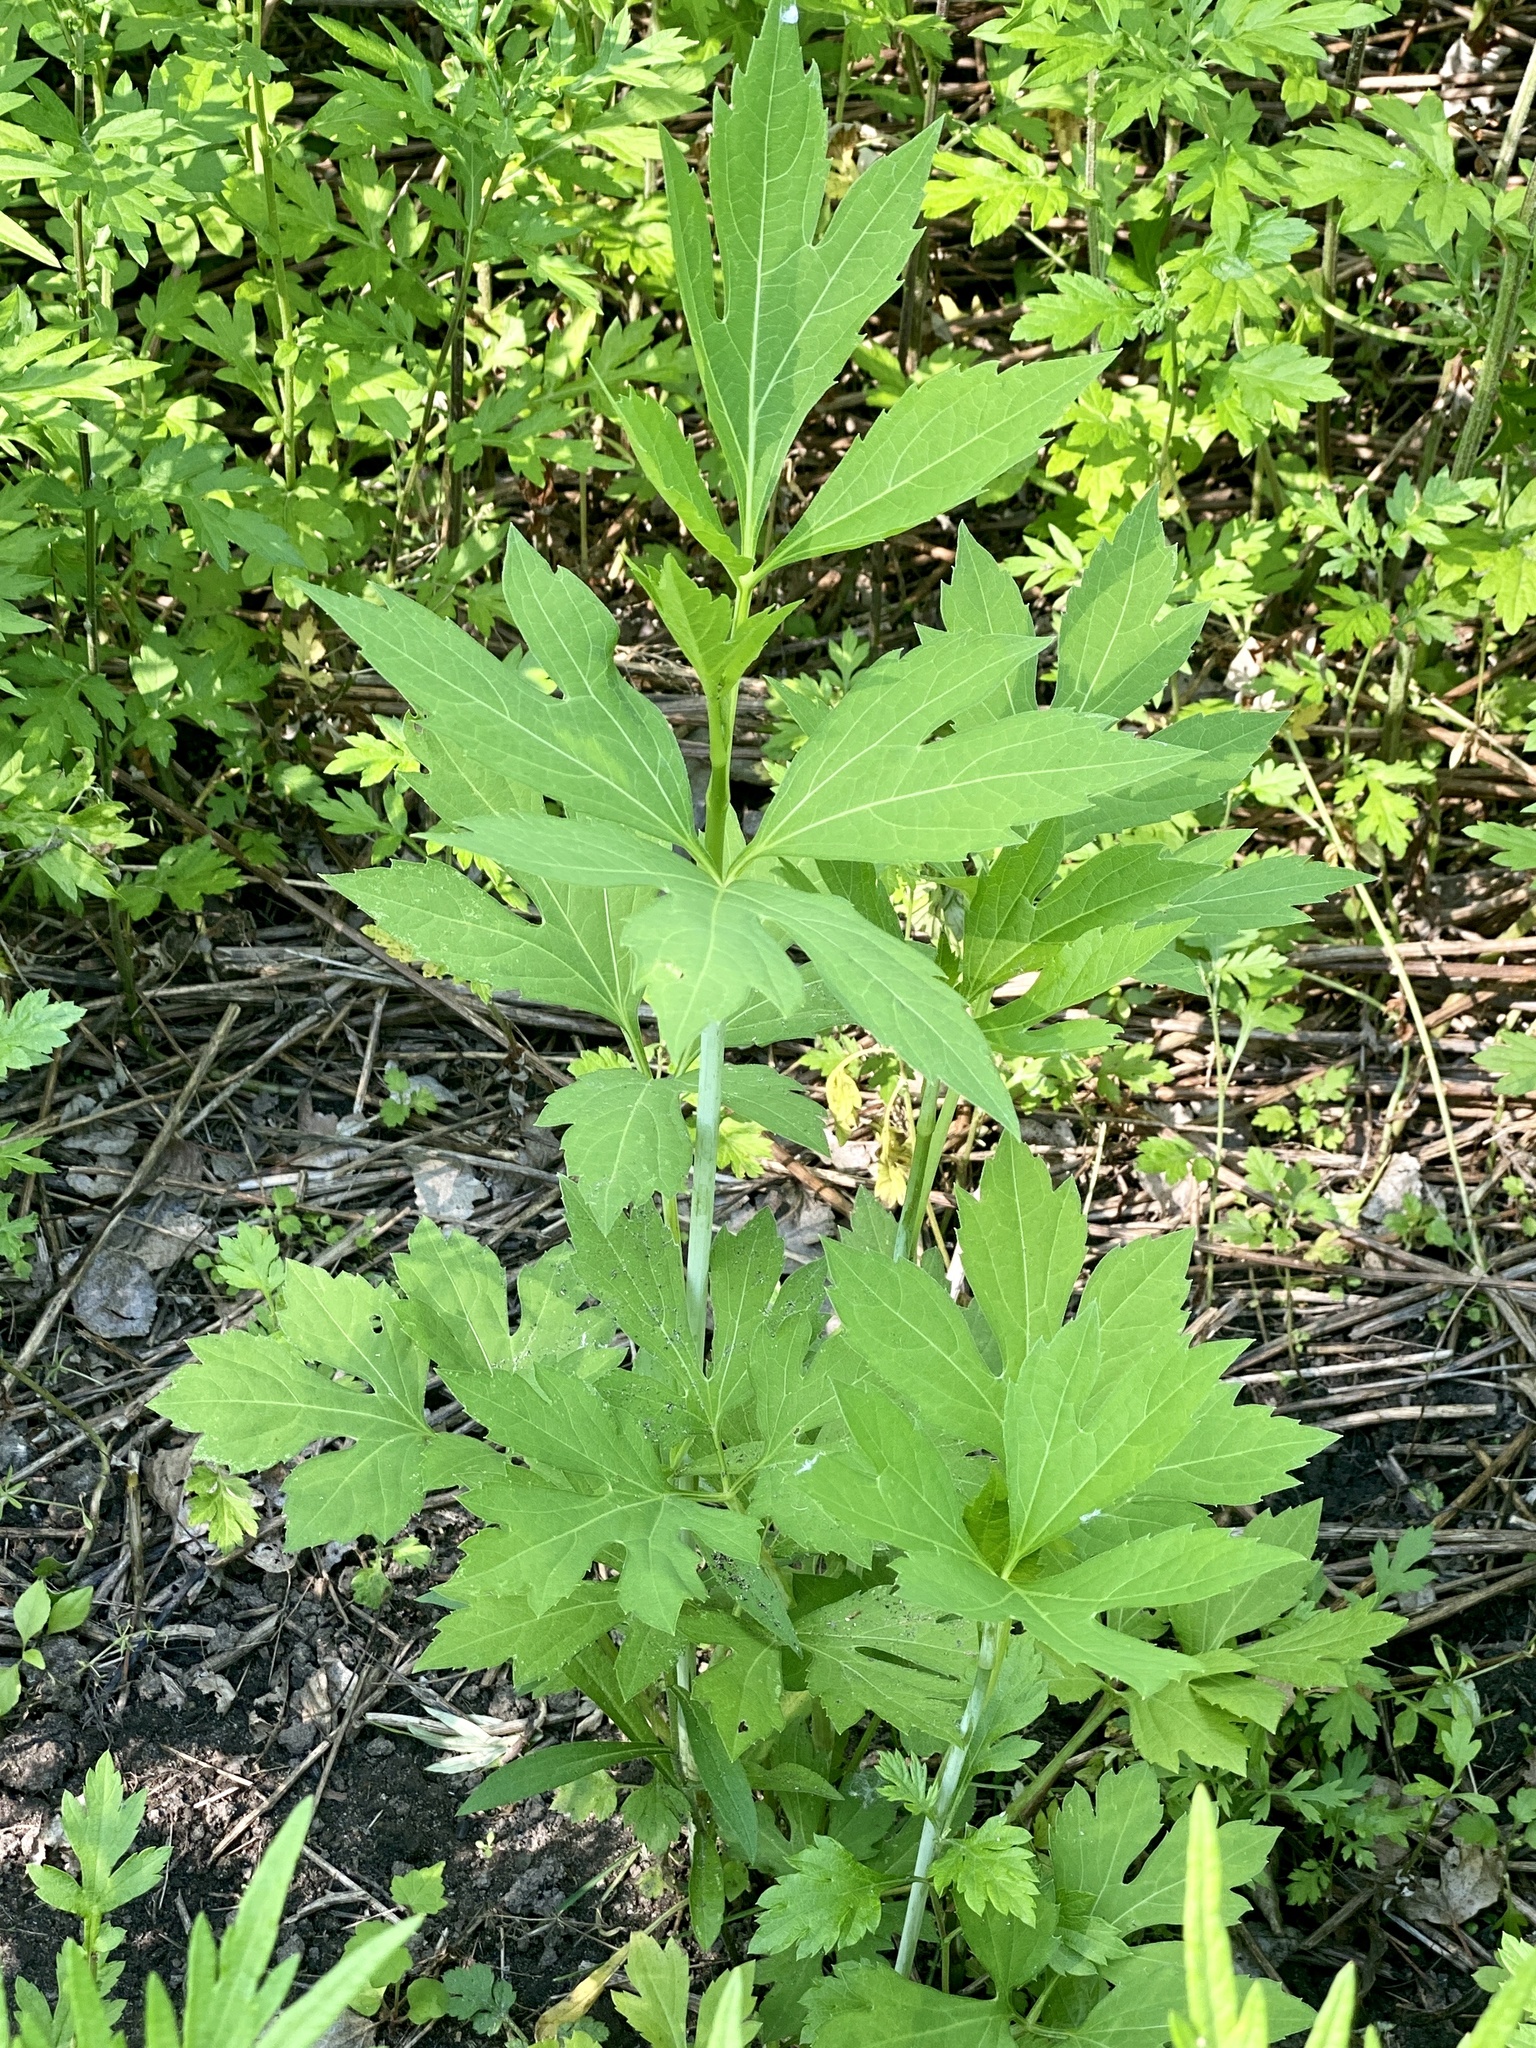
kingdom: Plantae
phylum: Tracheophyta
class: Magnoliopsida
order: Asterales
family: Asteraceae
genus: Rudbeckia
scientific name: Rudbeckia laciniata
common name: Coneflower
